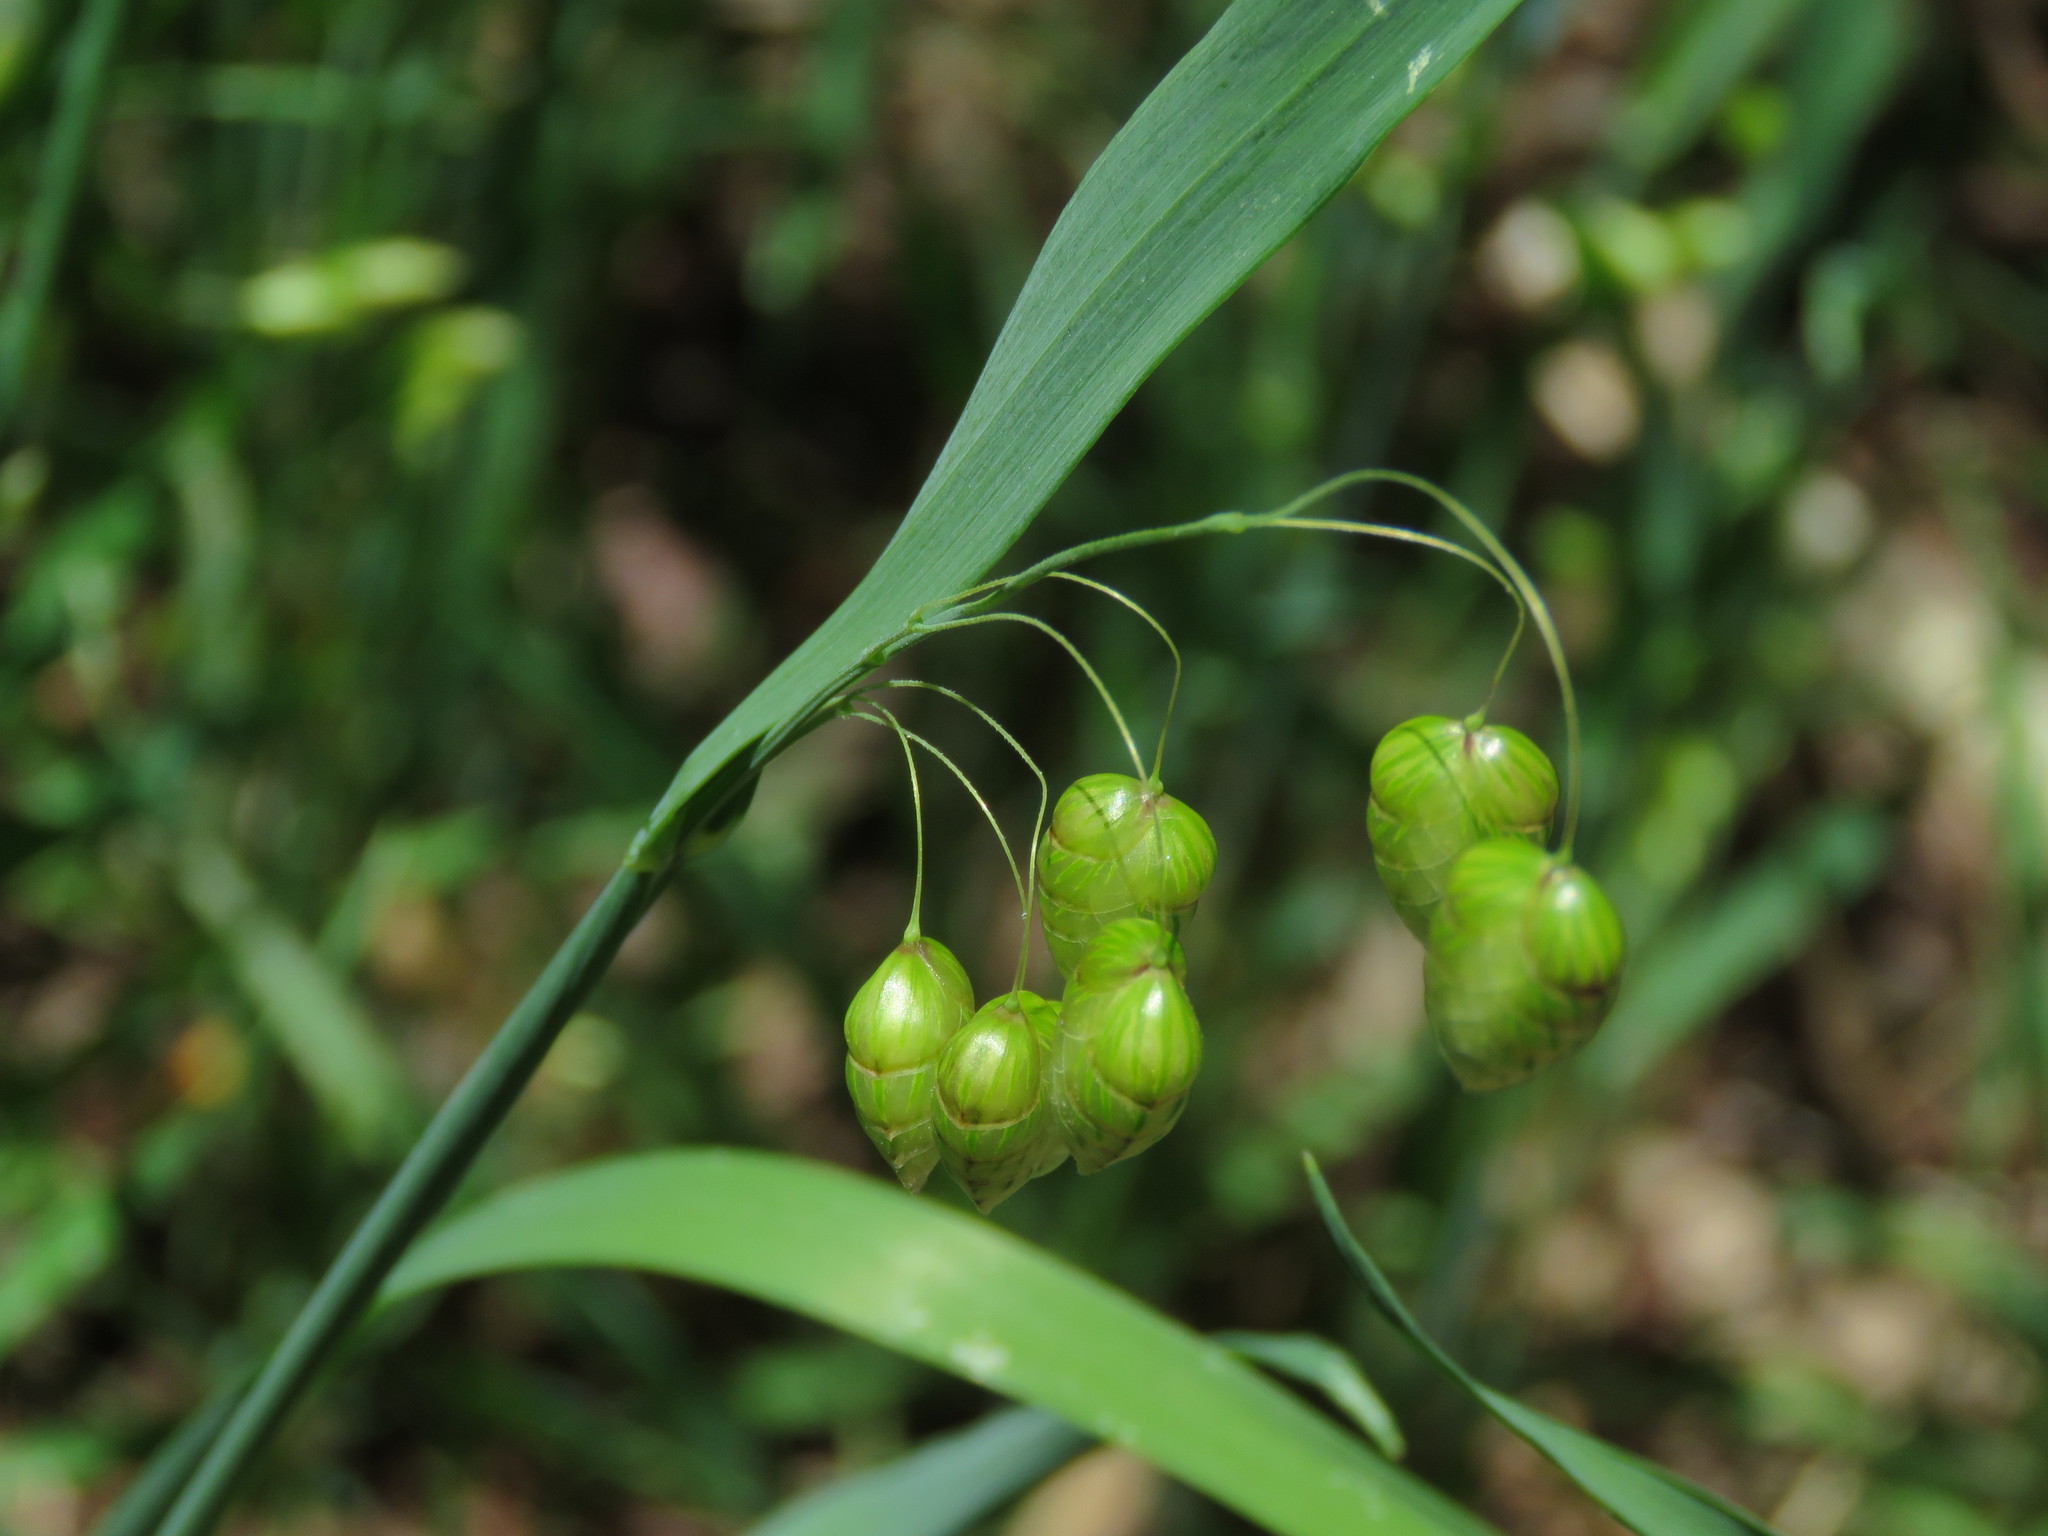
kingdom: Plantae
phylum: Tracheophyta
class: Liliopsida
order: Poales
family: Poaceae
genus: Briza
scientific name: Briza maxima
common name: Big quakinggrass
